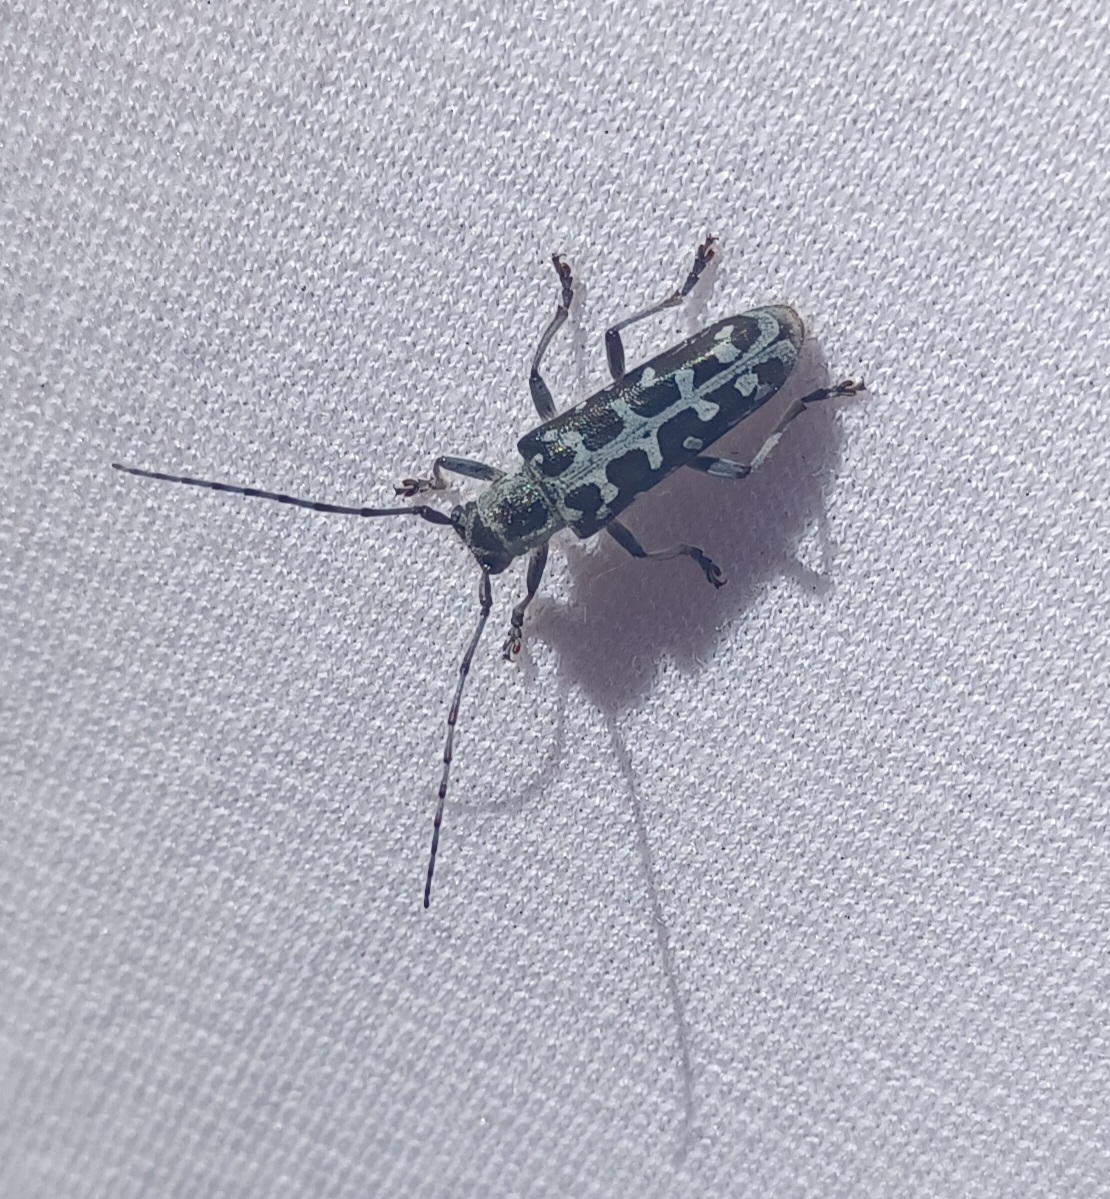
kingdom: Animalia
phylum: Arthropoda
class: Insecta
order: Coleoptera
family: Cerambycidae
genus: Saperda
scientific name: Saperda scalaris
